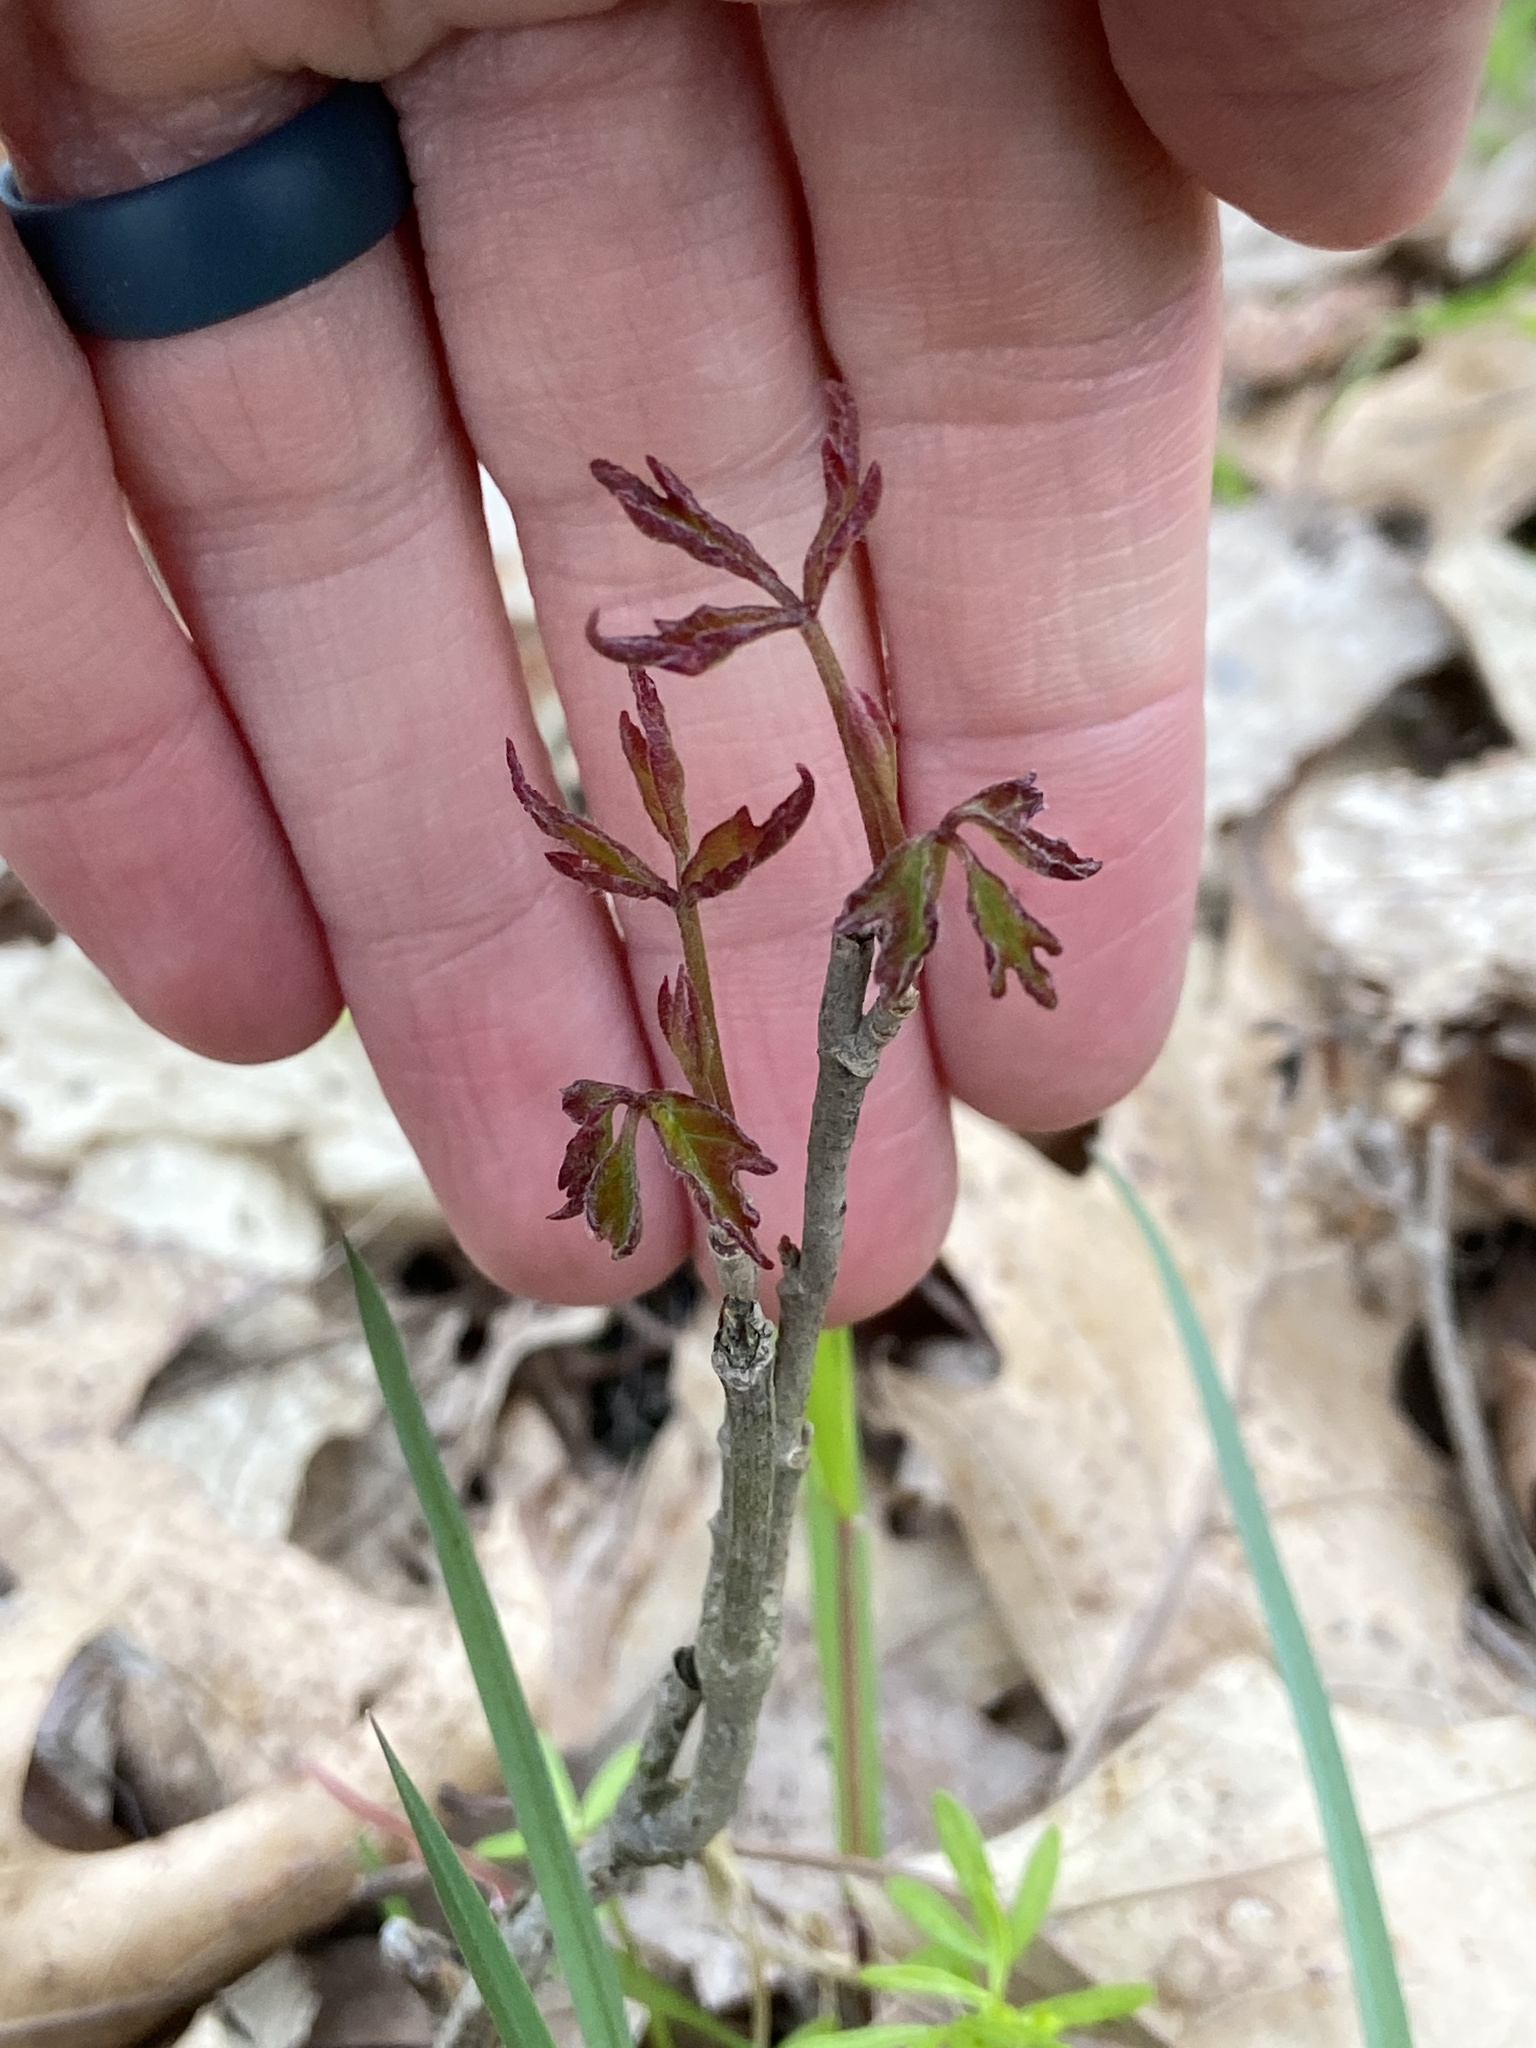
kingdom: Plantae
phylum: Tracheophyta
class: Magnoliopsida
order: Sapindales
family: Anacardiaceae
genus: Toxicodendron
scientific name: Toxicodendron radicans
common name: Poison ivy
